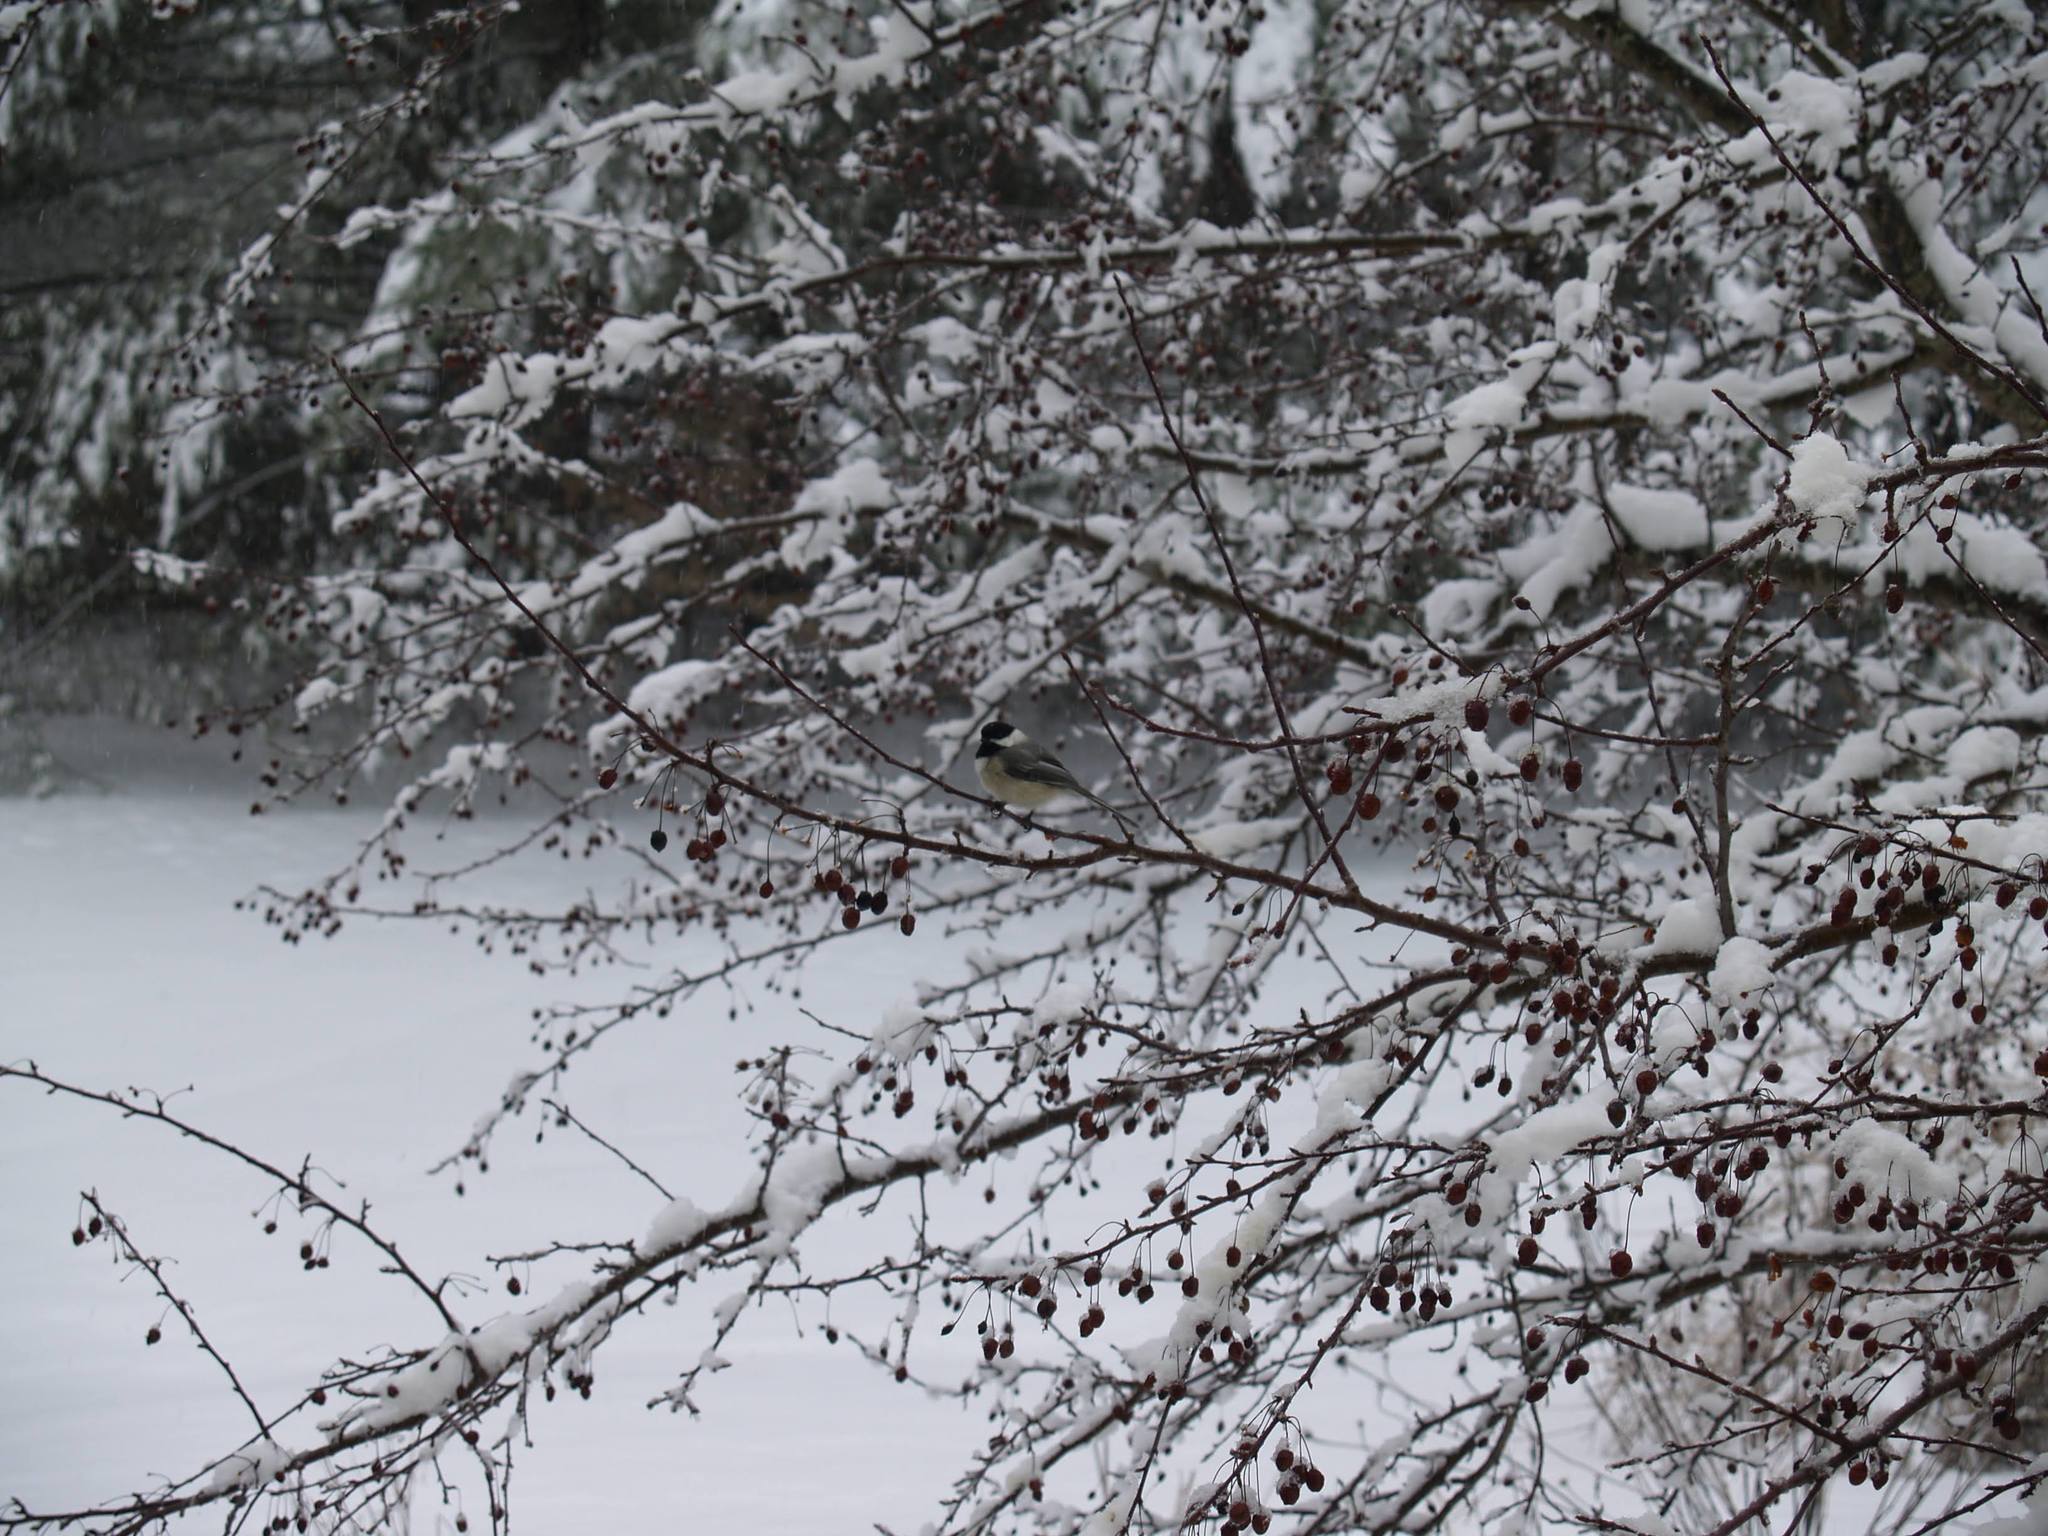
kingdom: Animalia
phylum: Chordata
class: Aves
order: Passeriformes
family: Paridae
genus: Poecile
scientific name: Poecile atricapillus
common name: Black-capped chickadee
